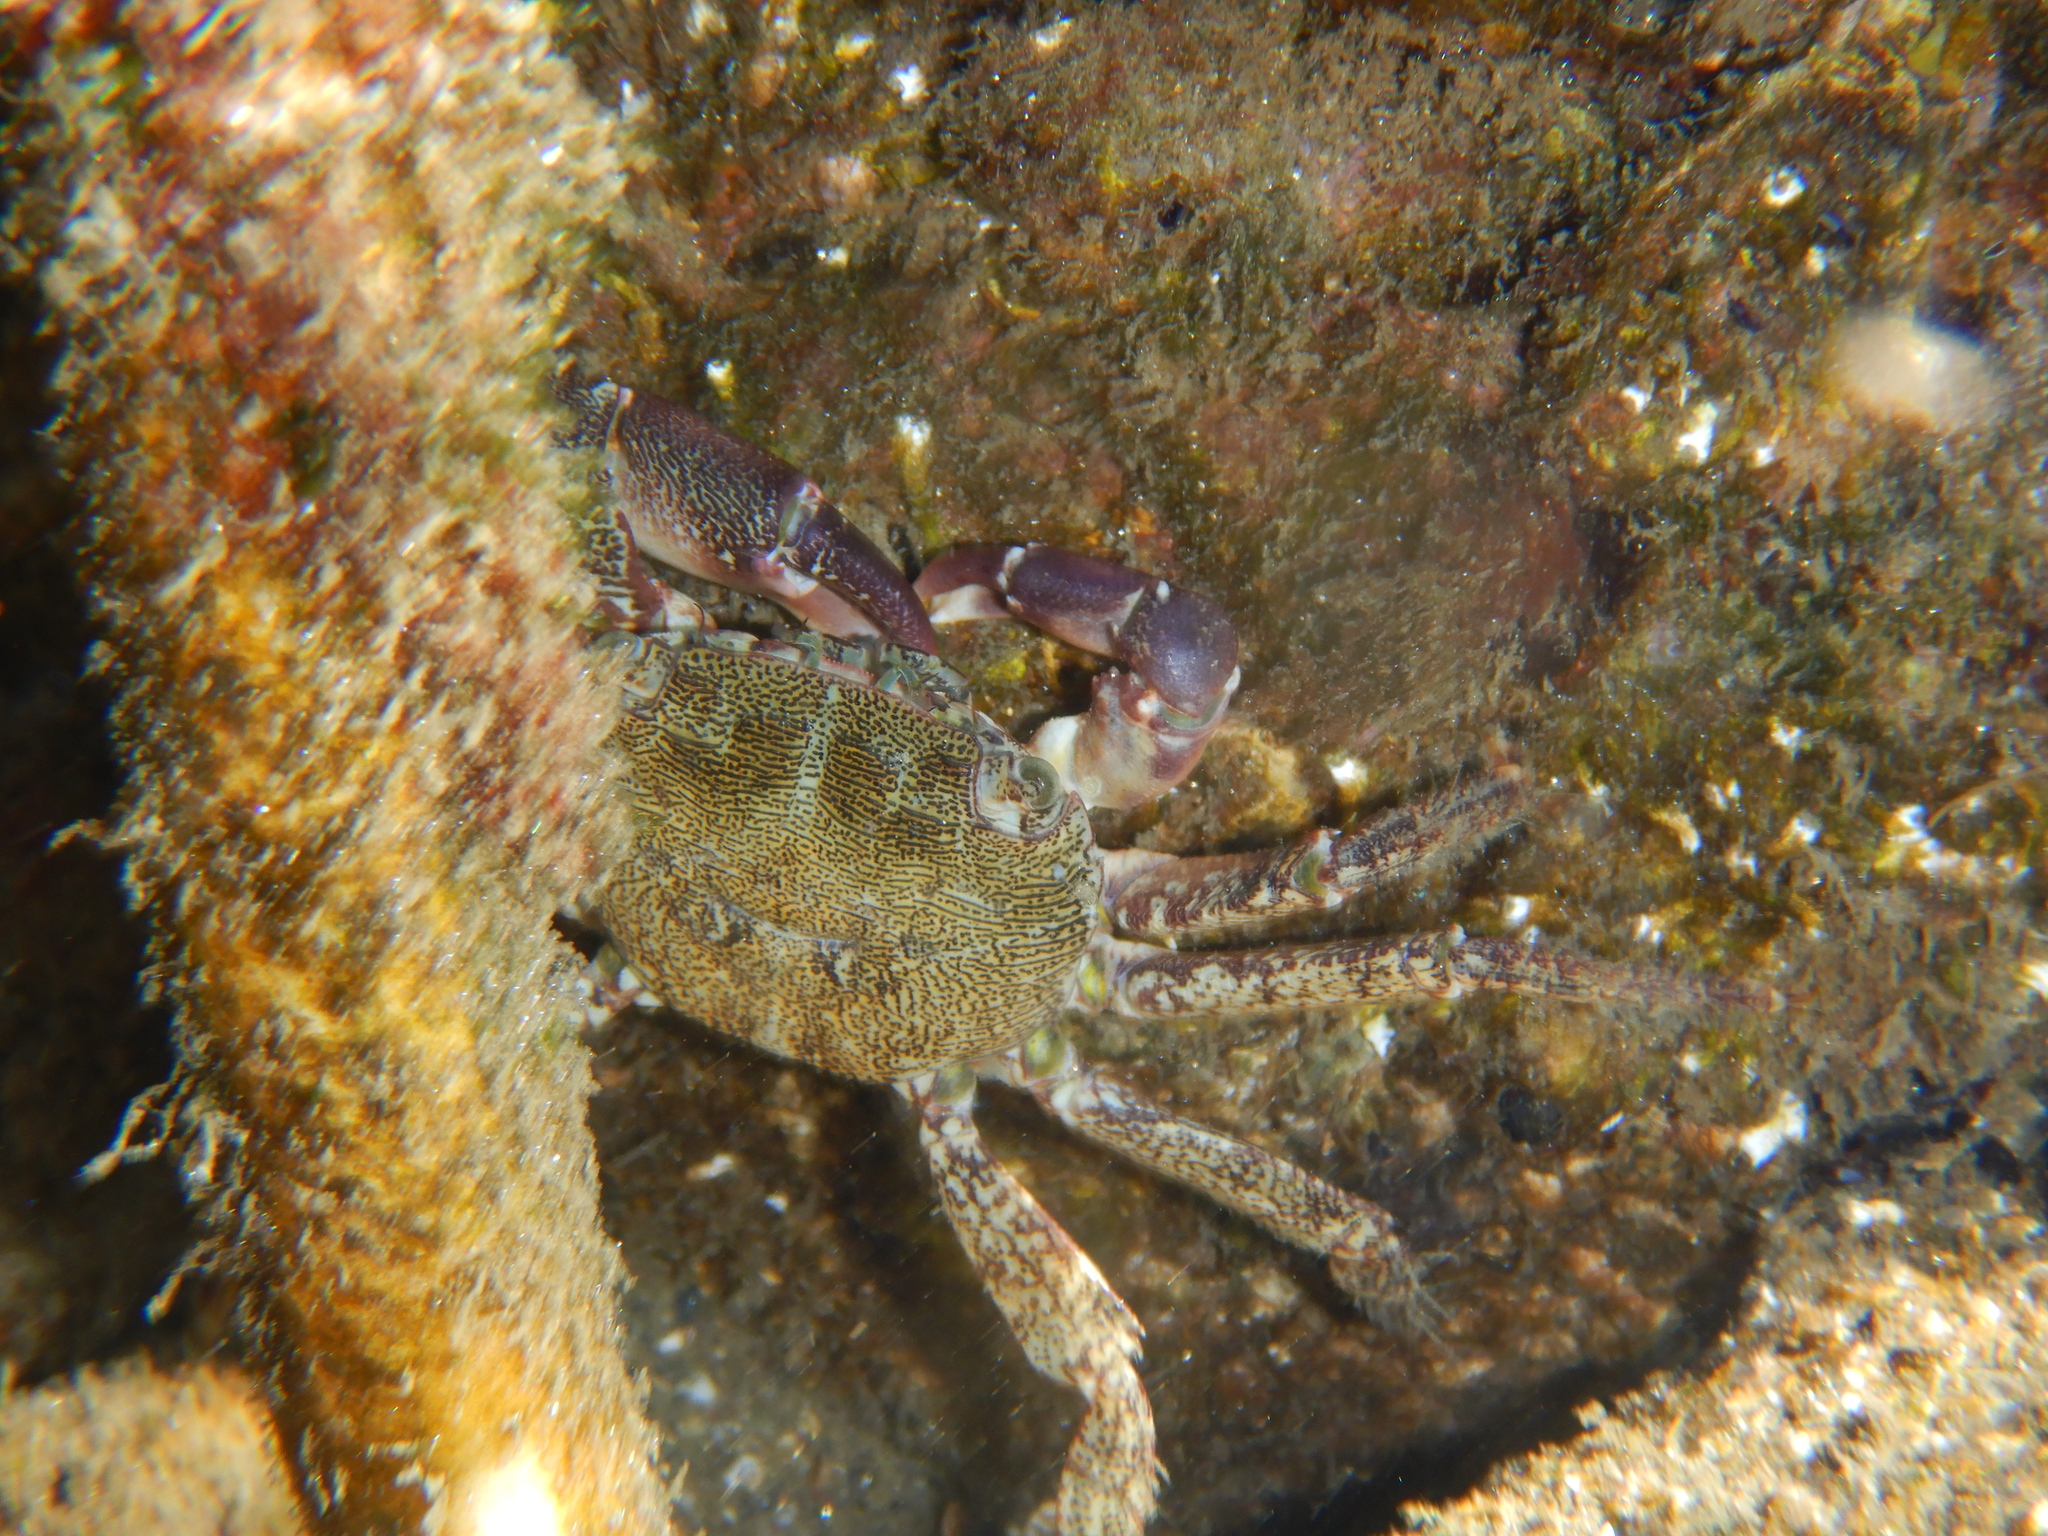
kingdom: Animalia
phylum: Arthropoda
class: Malacostraca
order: Decapoda
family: Grapsidae
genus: Pachygrapsus
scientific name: Pachygrapsus marmoratus
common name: Marbled rock crab
